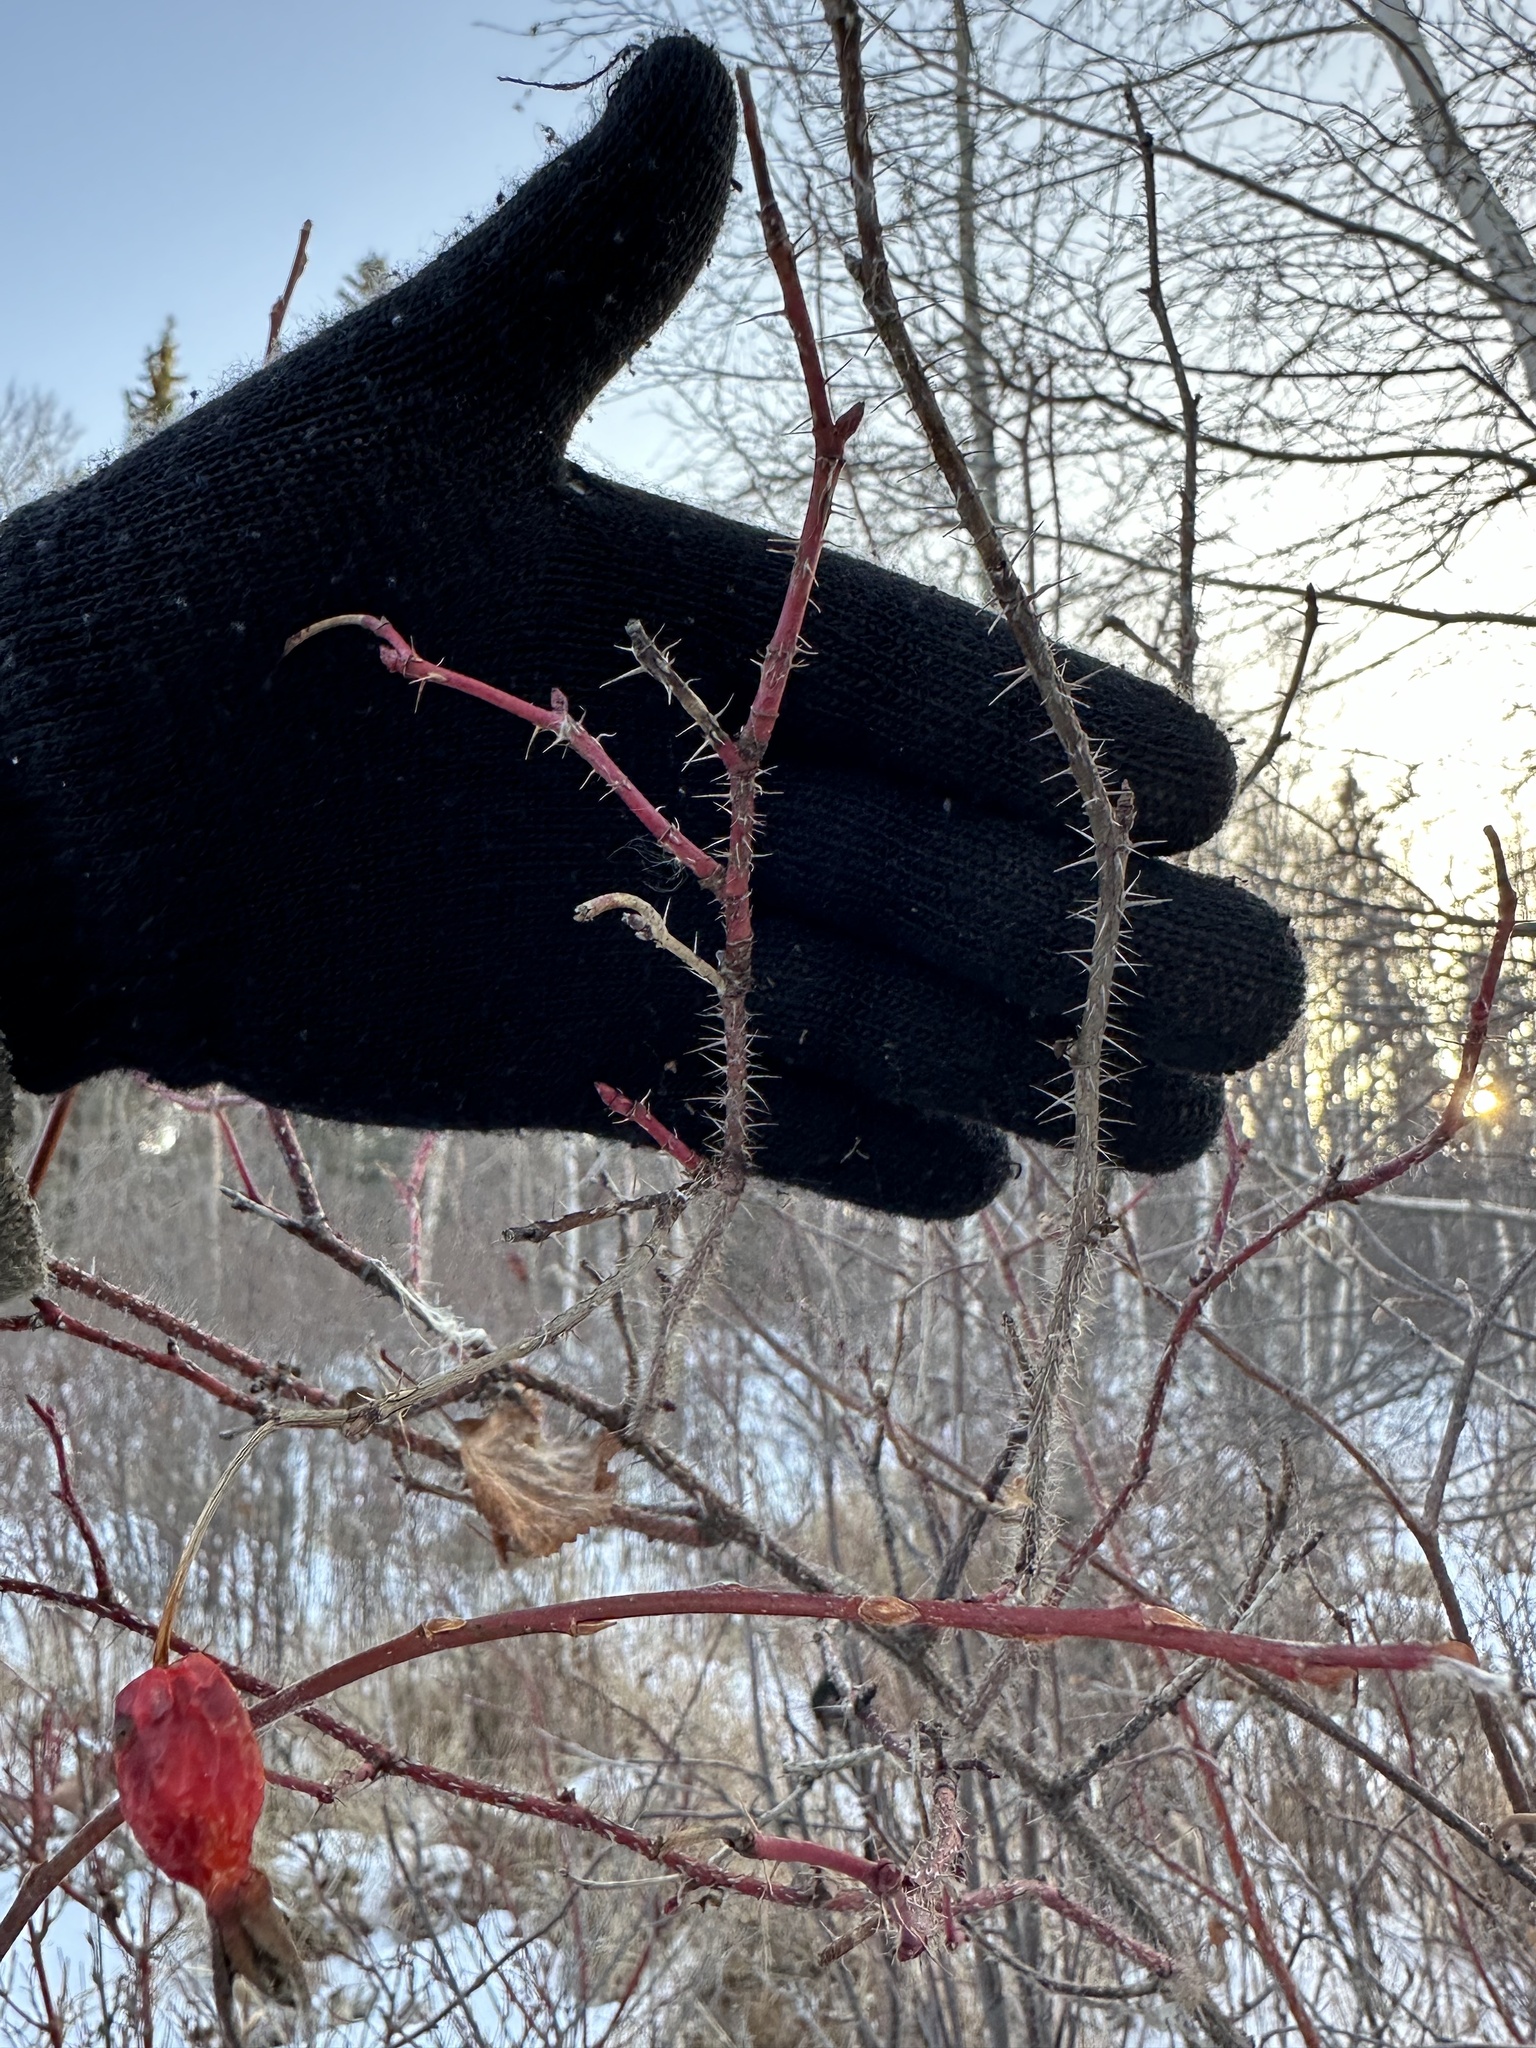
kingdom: Plantae
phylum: Tracheophyta
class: Magnoliopsida
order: Rosales
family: Rosaceae
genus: Rosa
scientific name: Rosa acicularis
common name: Prickly rose
